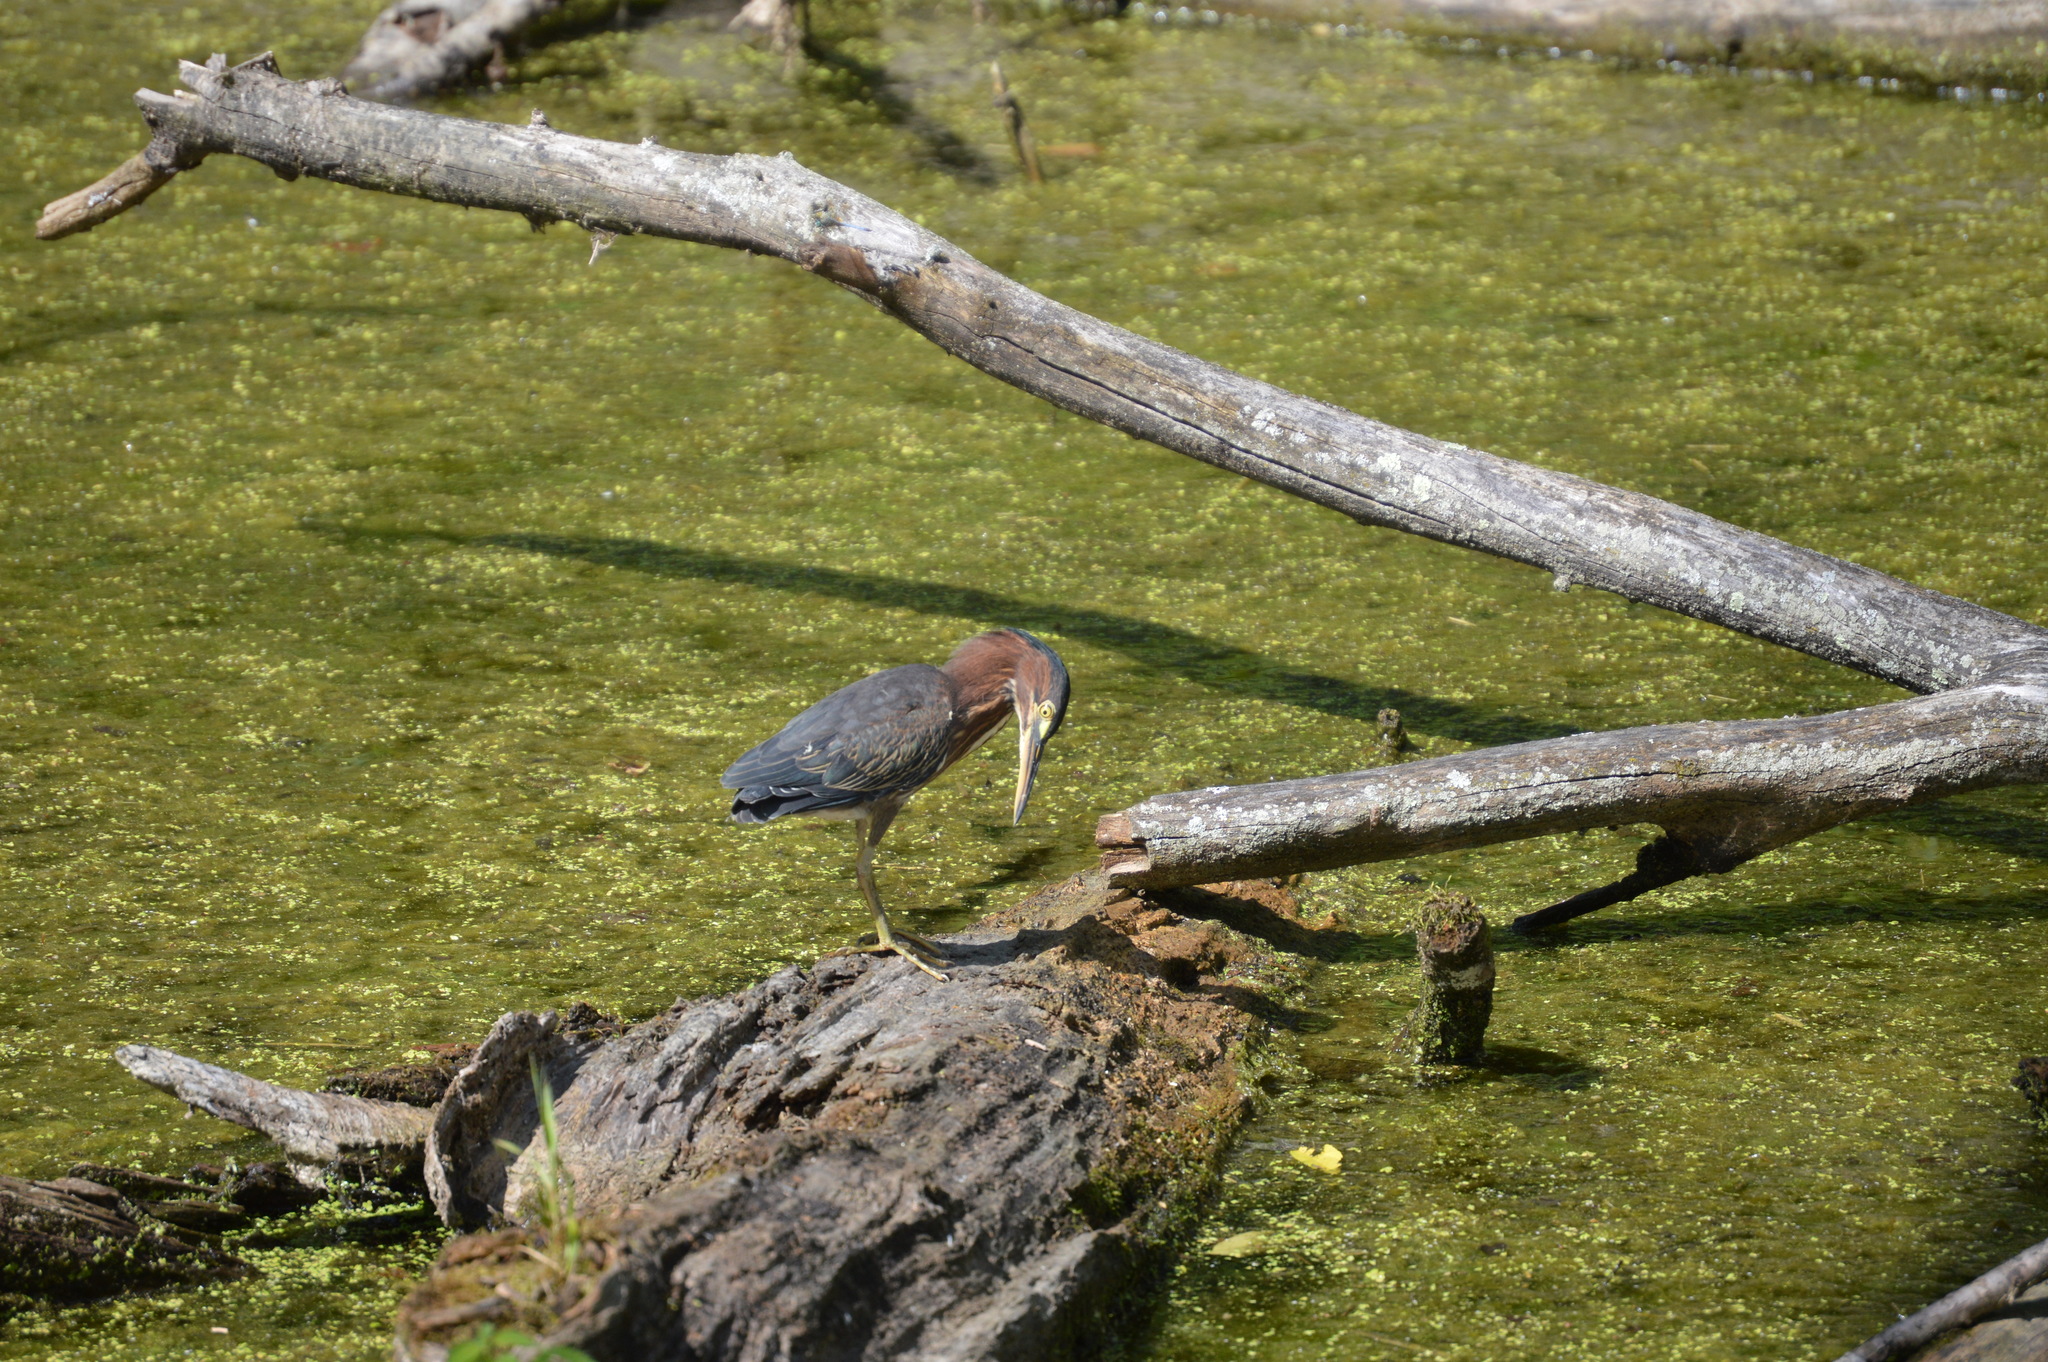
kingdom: Animalia
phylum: Chordata
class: Aves
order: Pelecaniformes
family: Ardeidae
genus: Butorides
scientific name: Butorides virescens
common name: Green heron
